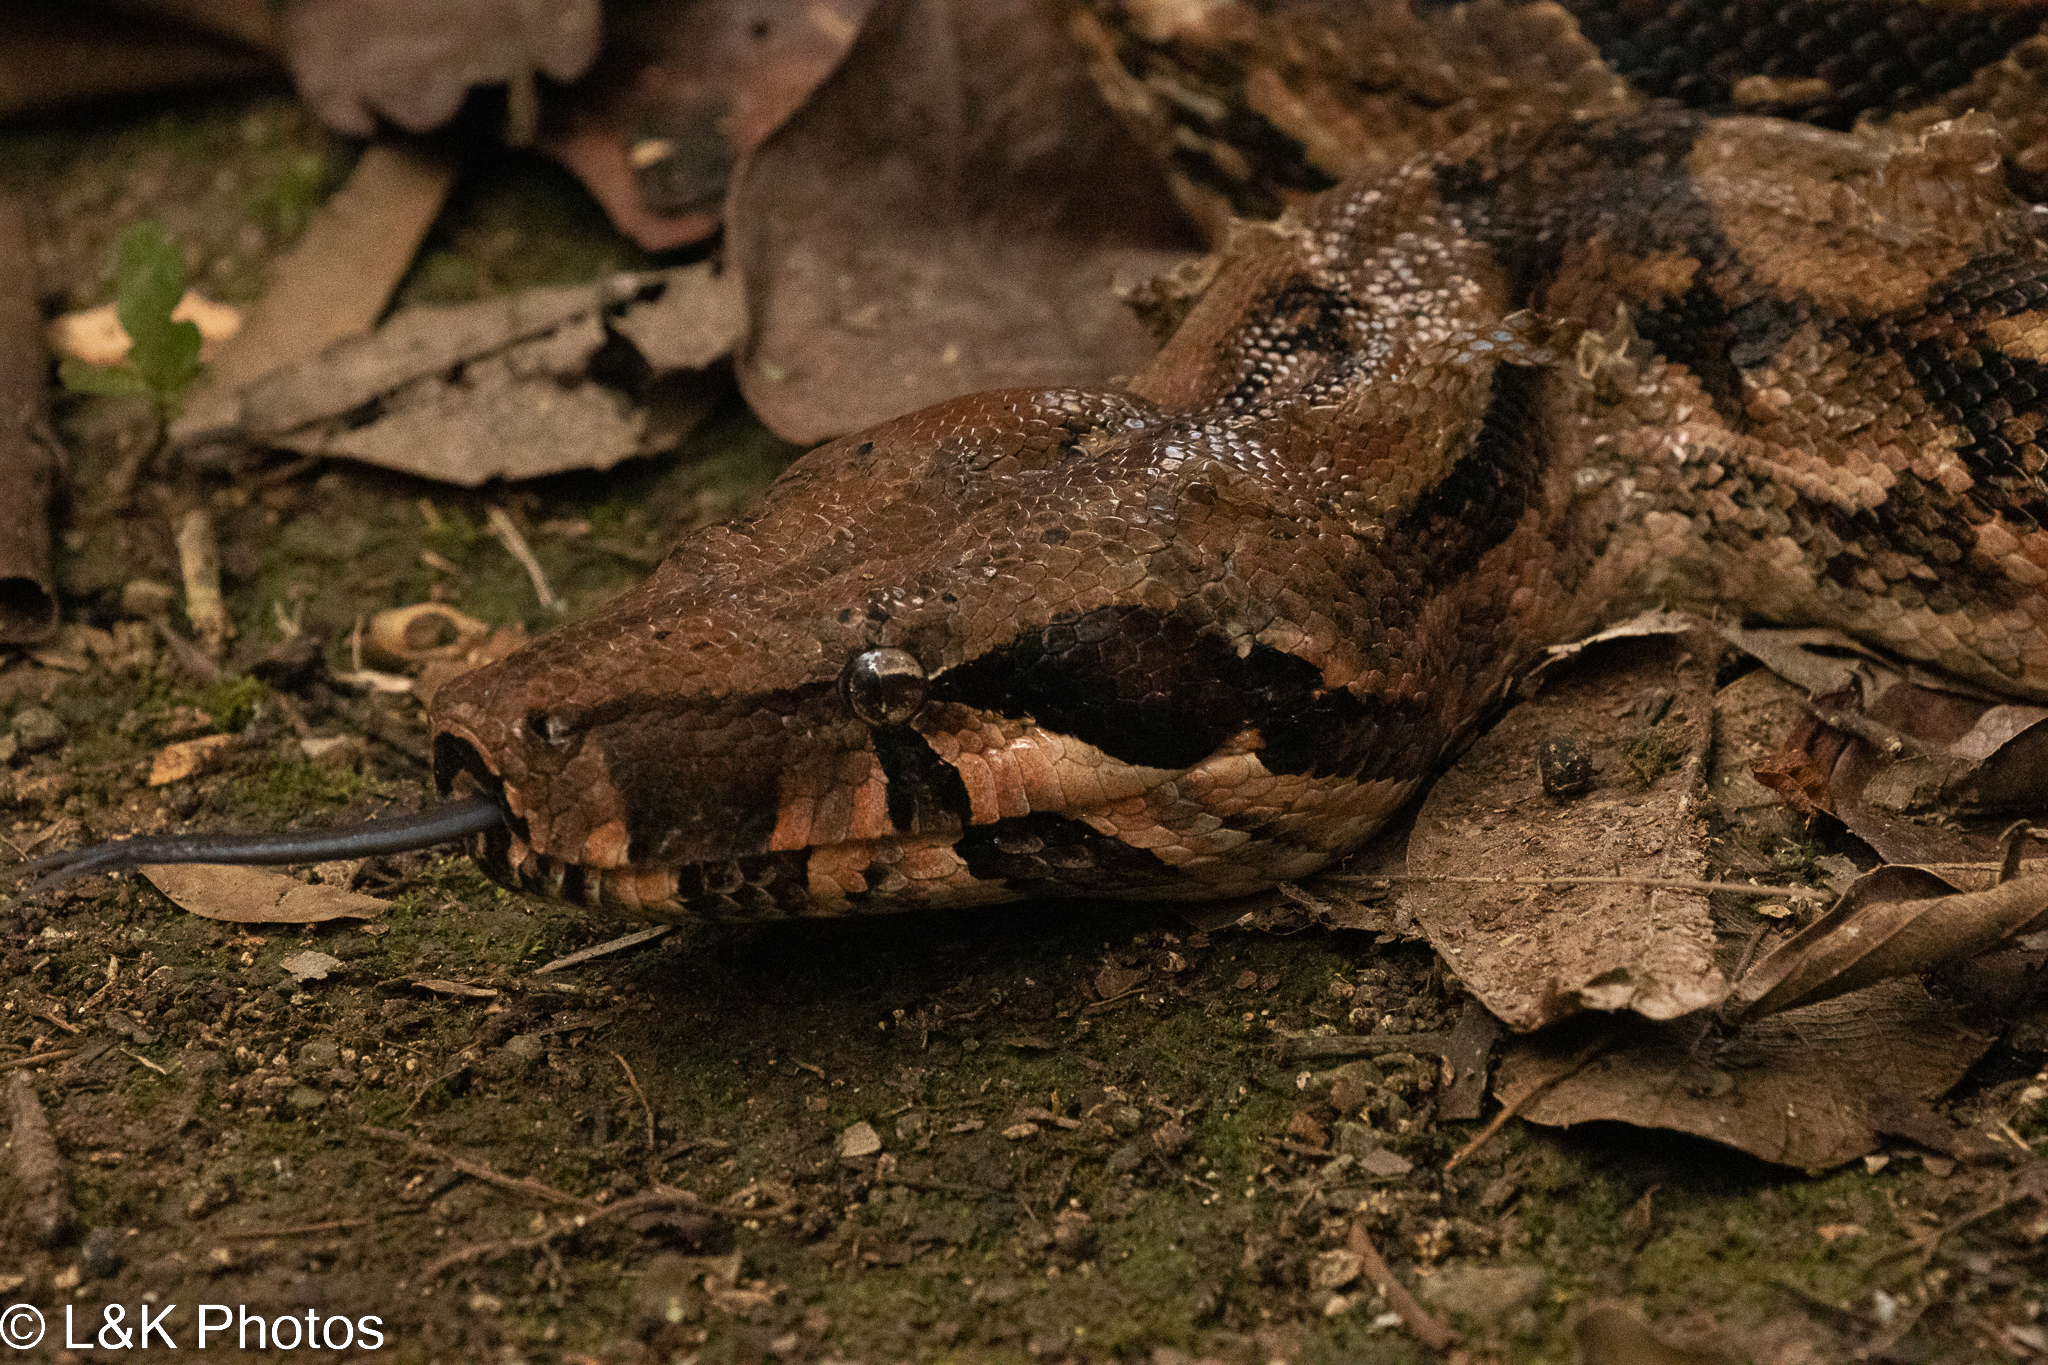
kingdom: Animalia
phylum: Chordata
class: Squamata
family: Boidae
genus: Boa
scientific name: Boa imperator
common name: Central american boa
